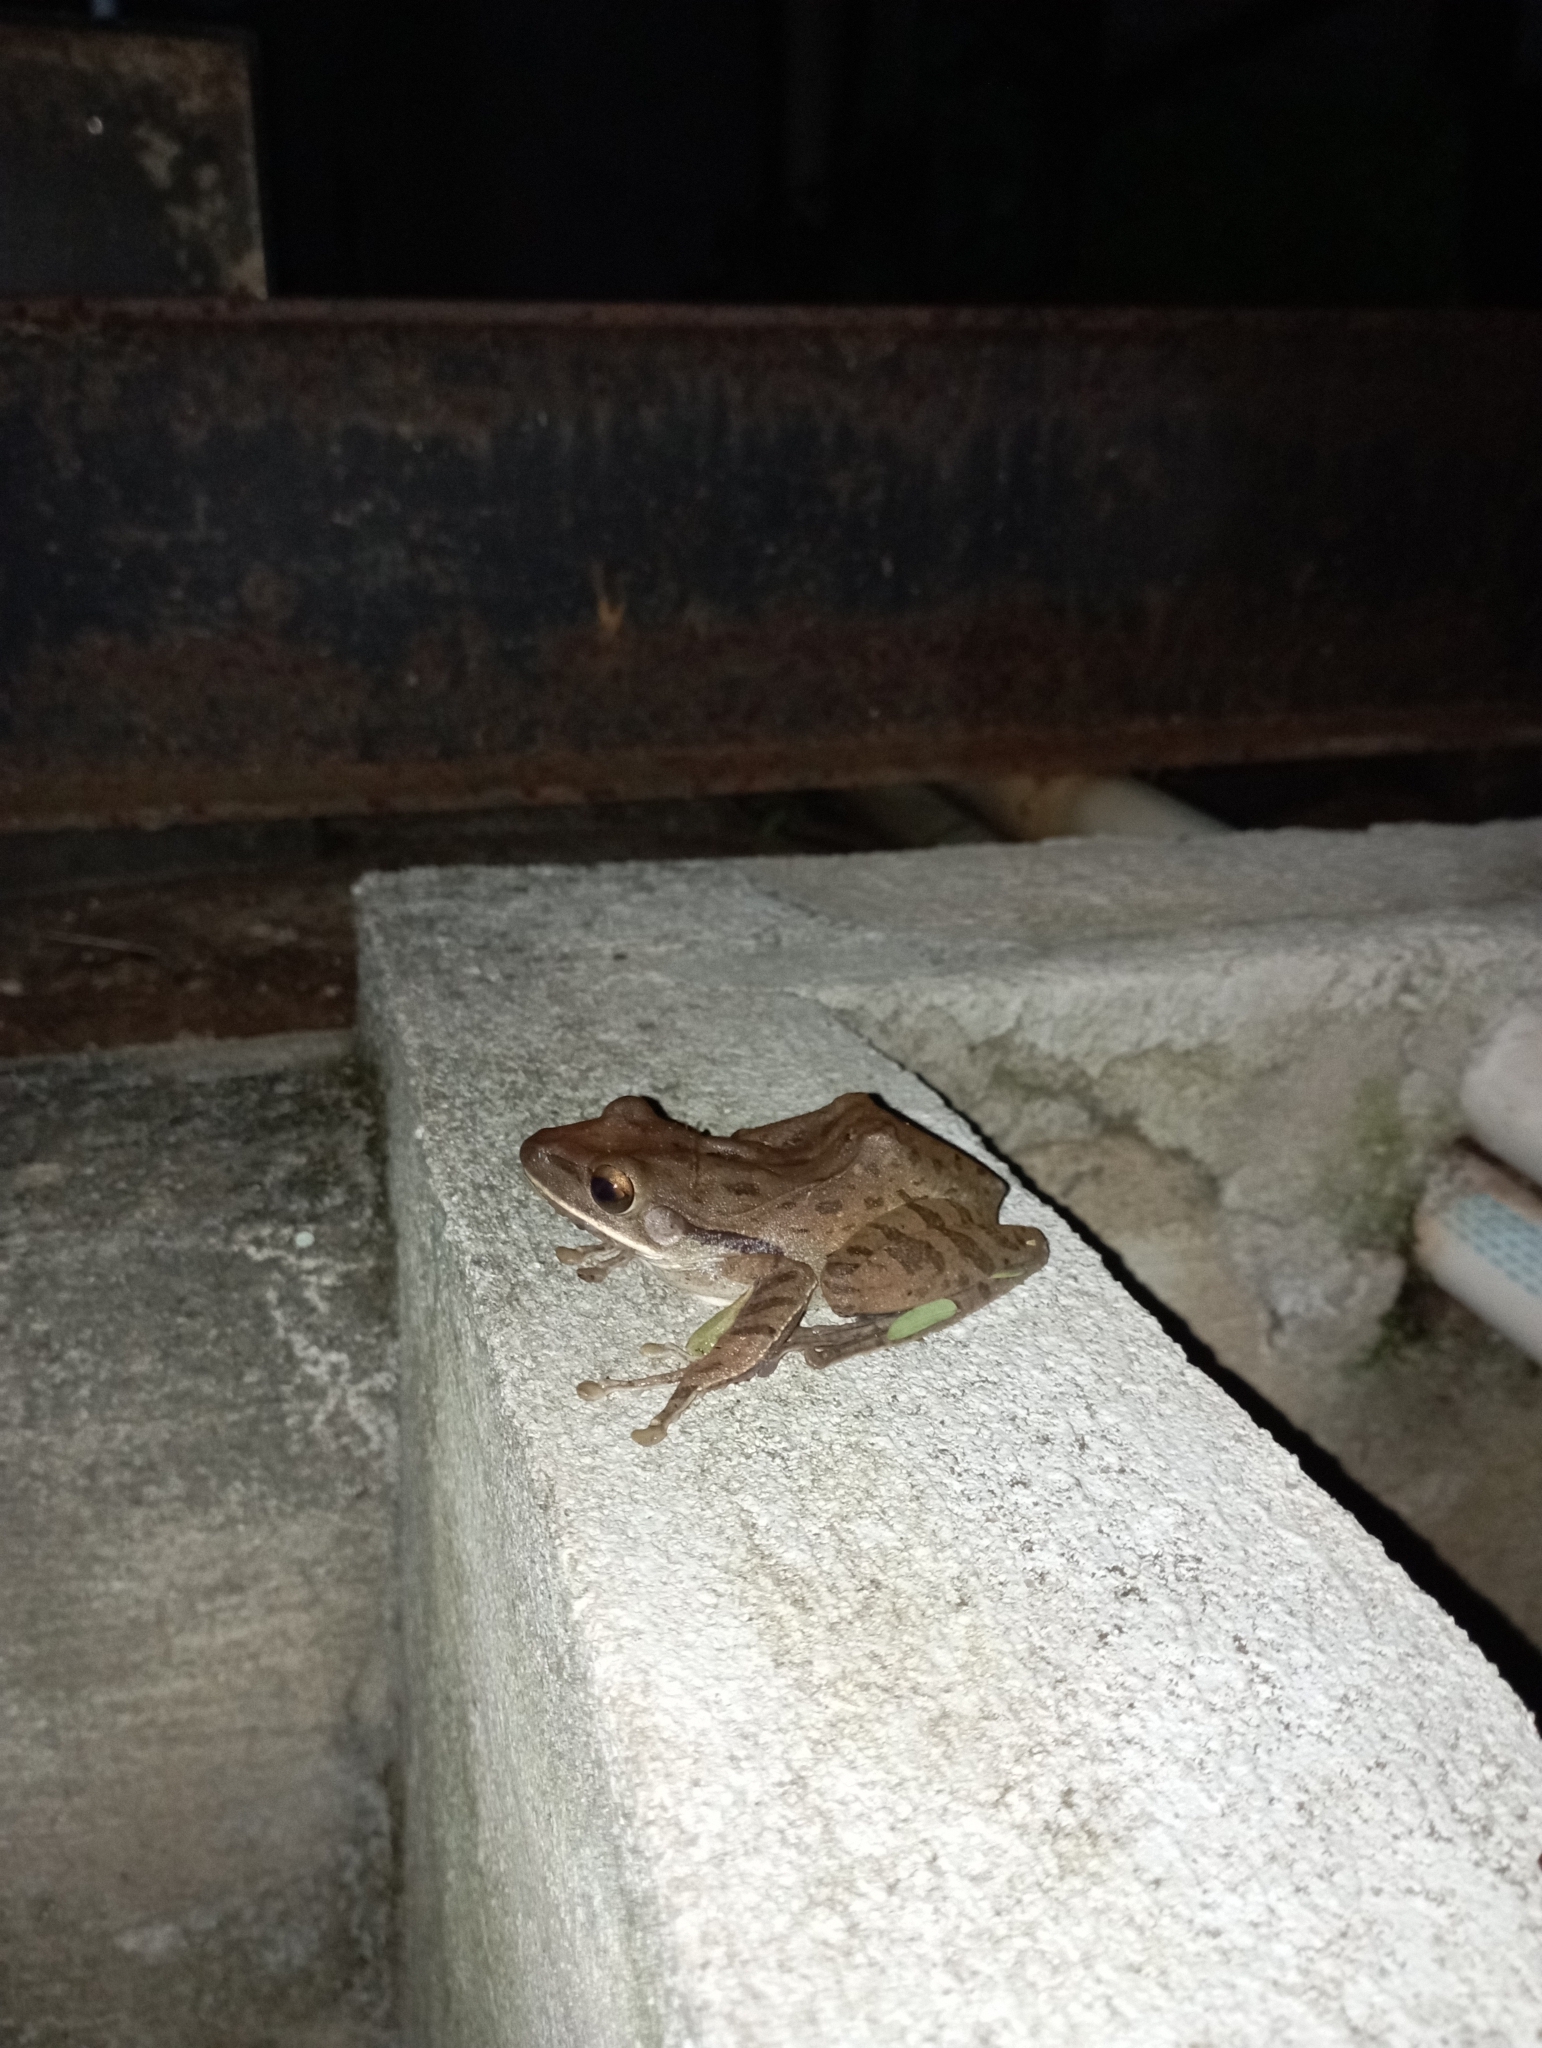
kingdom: Animalia
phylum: Chordata
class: Amphibia
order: Anura
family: Rhacophoridae
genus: Polypedates
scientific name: Polypedates leucomystax
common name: Common tree frog/four-lined tree frog
